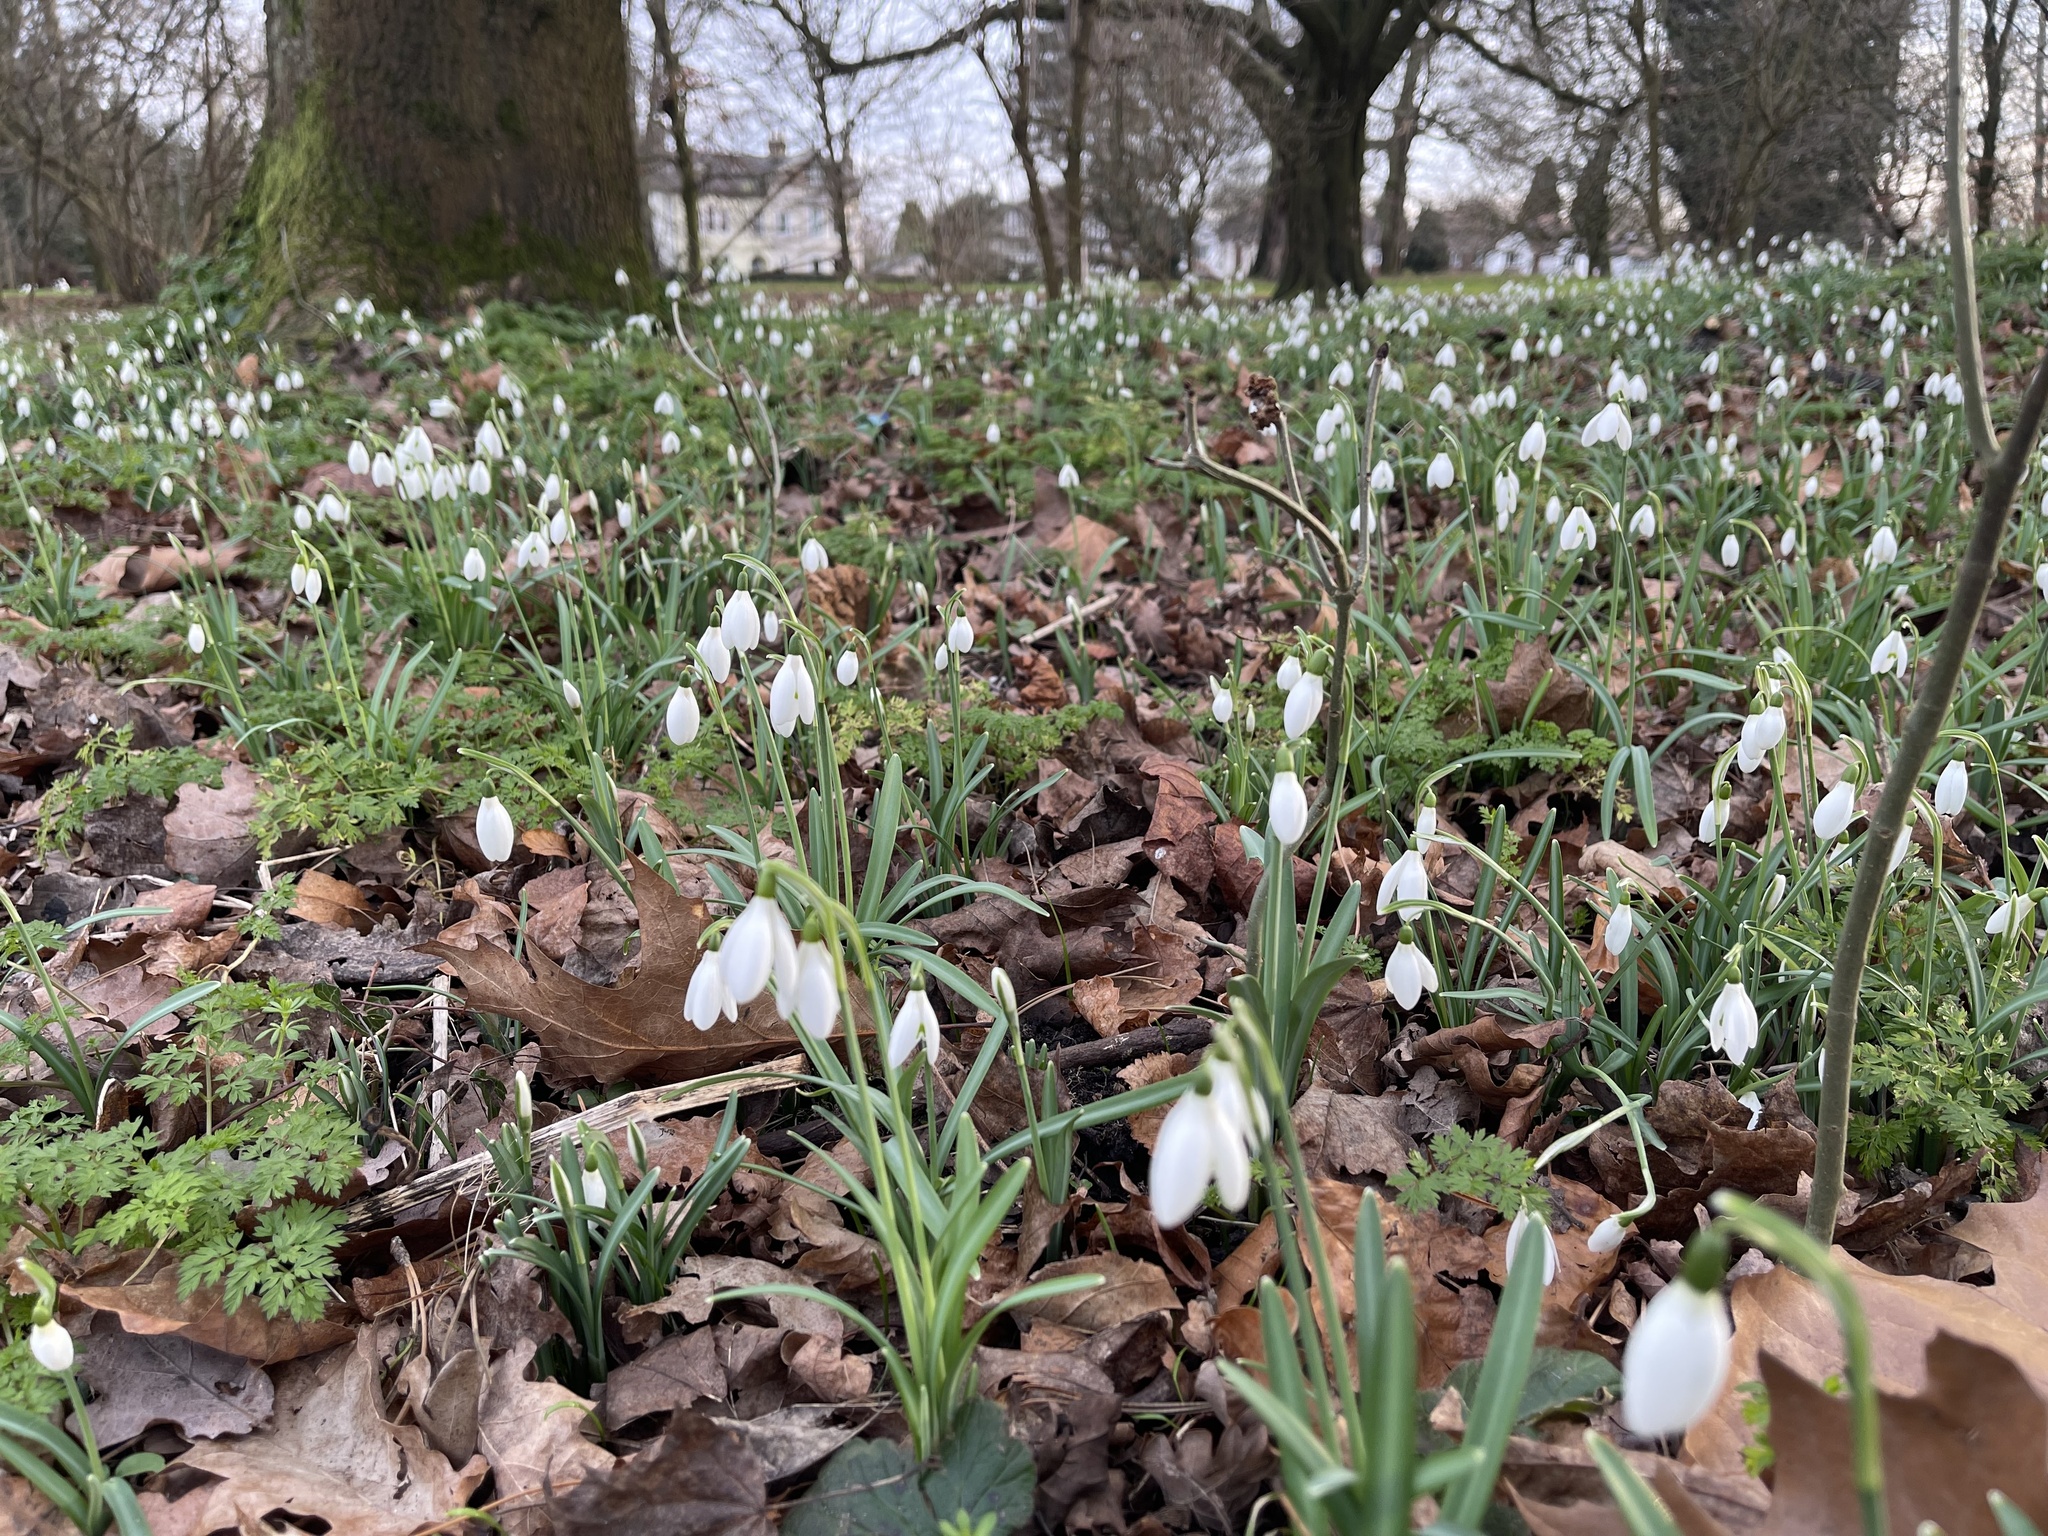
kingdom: Plantae
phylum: Tracheophyta
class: Liliopsida
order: Asparagales
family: Amaryllidaceae
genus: Galanthus
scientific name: Galanthus nivalis
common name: Snowdrop
